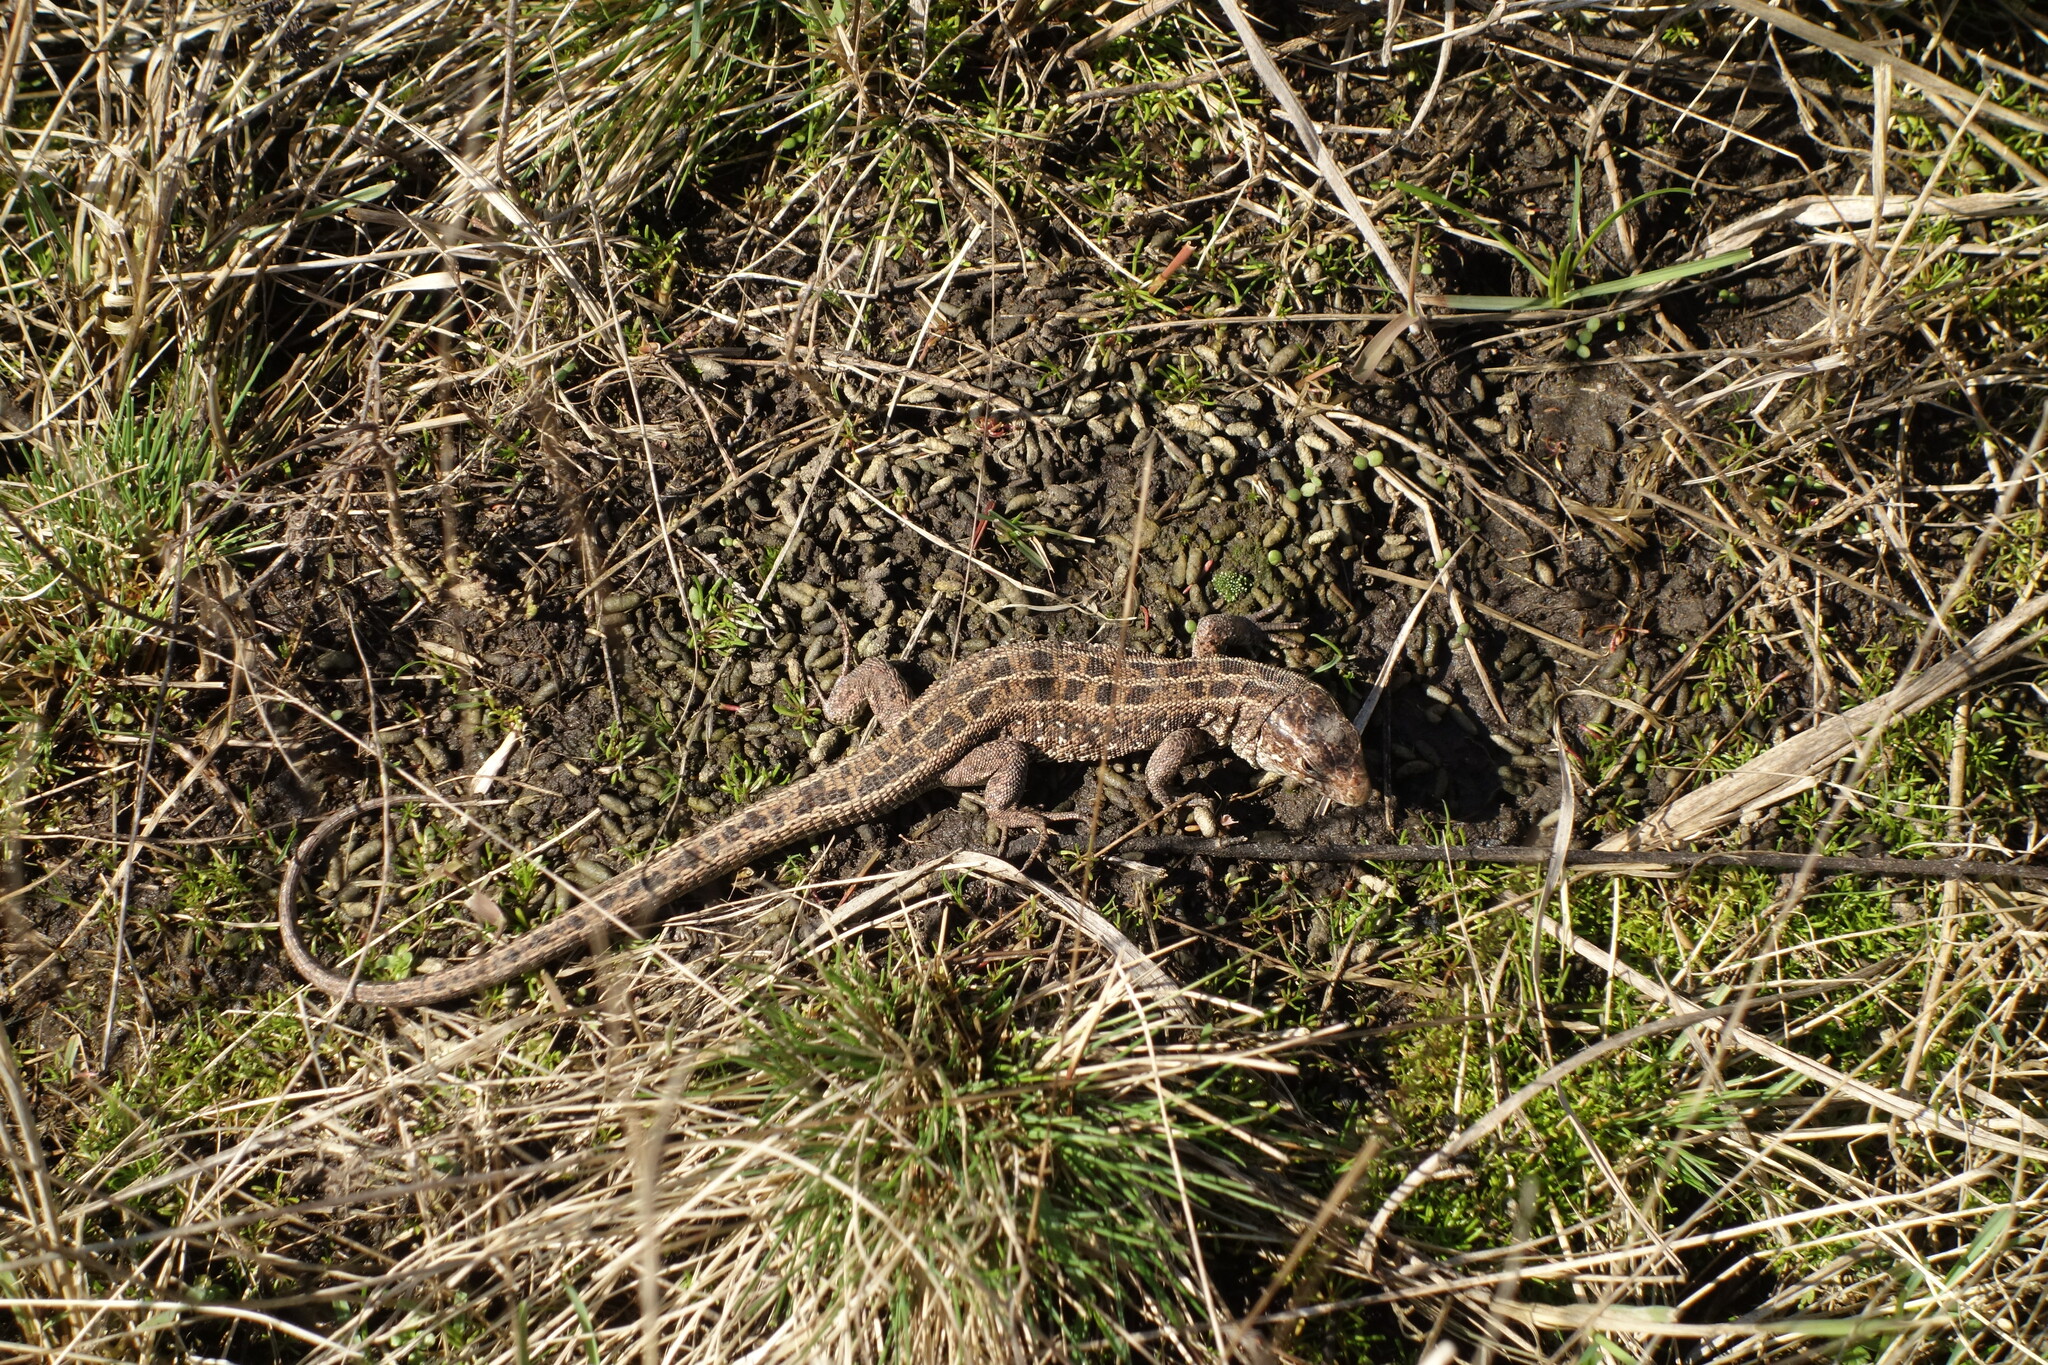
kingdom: Animalia
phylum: Chordata
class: Squamata
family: Lacertidae
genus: Lacerta
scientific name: Lacerta agilis
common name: Sand lizard
